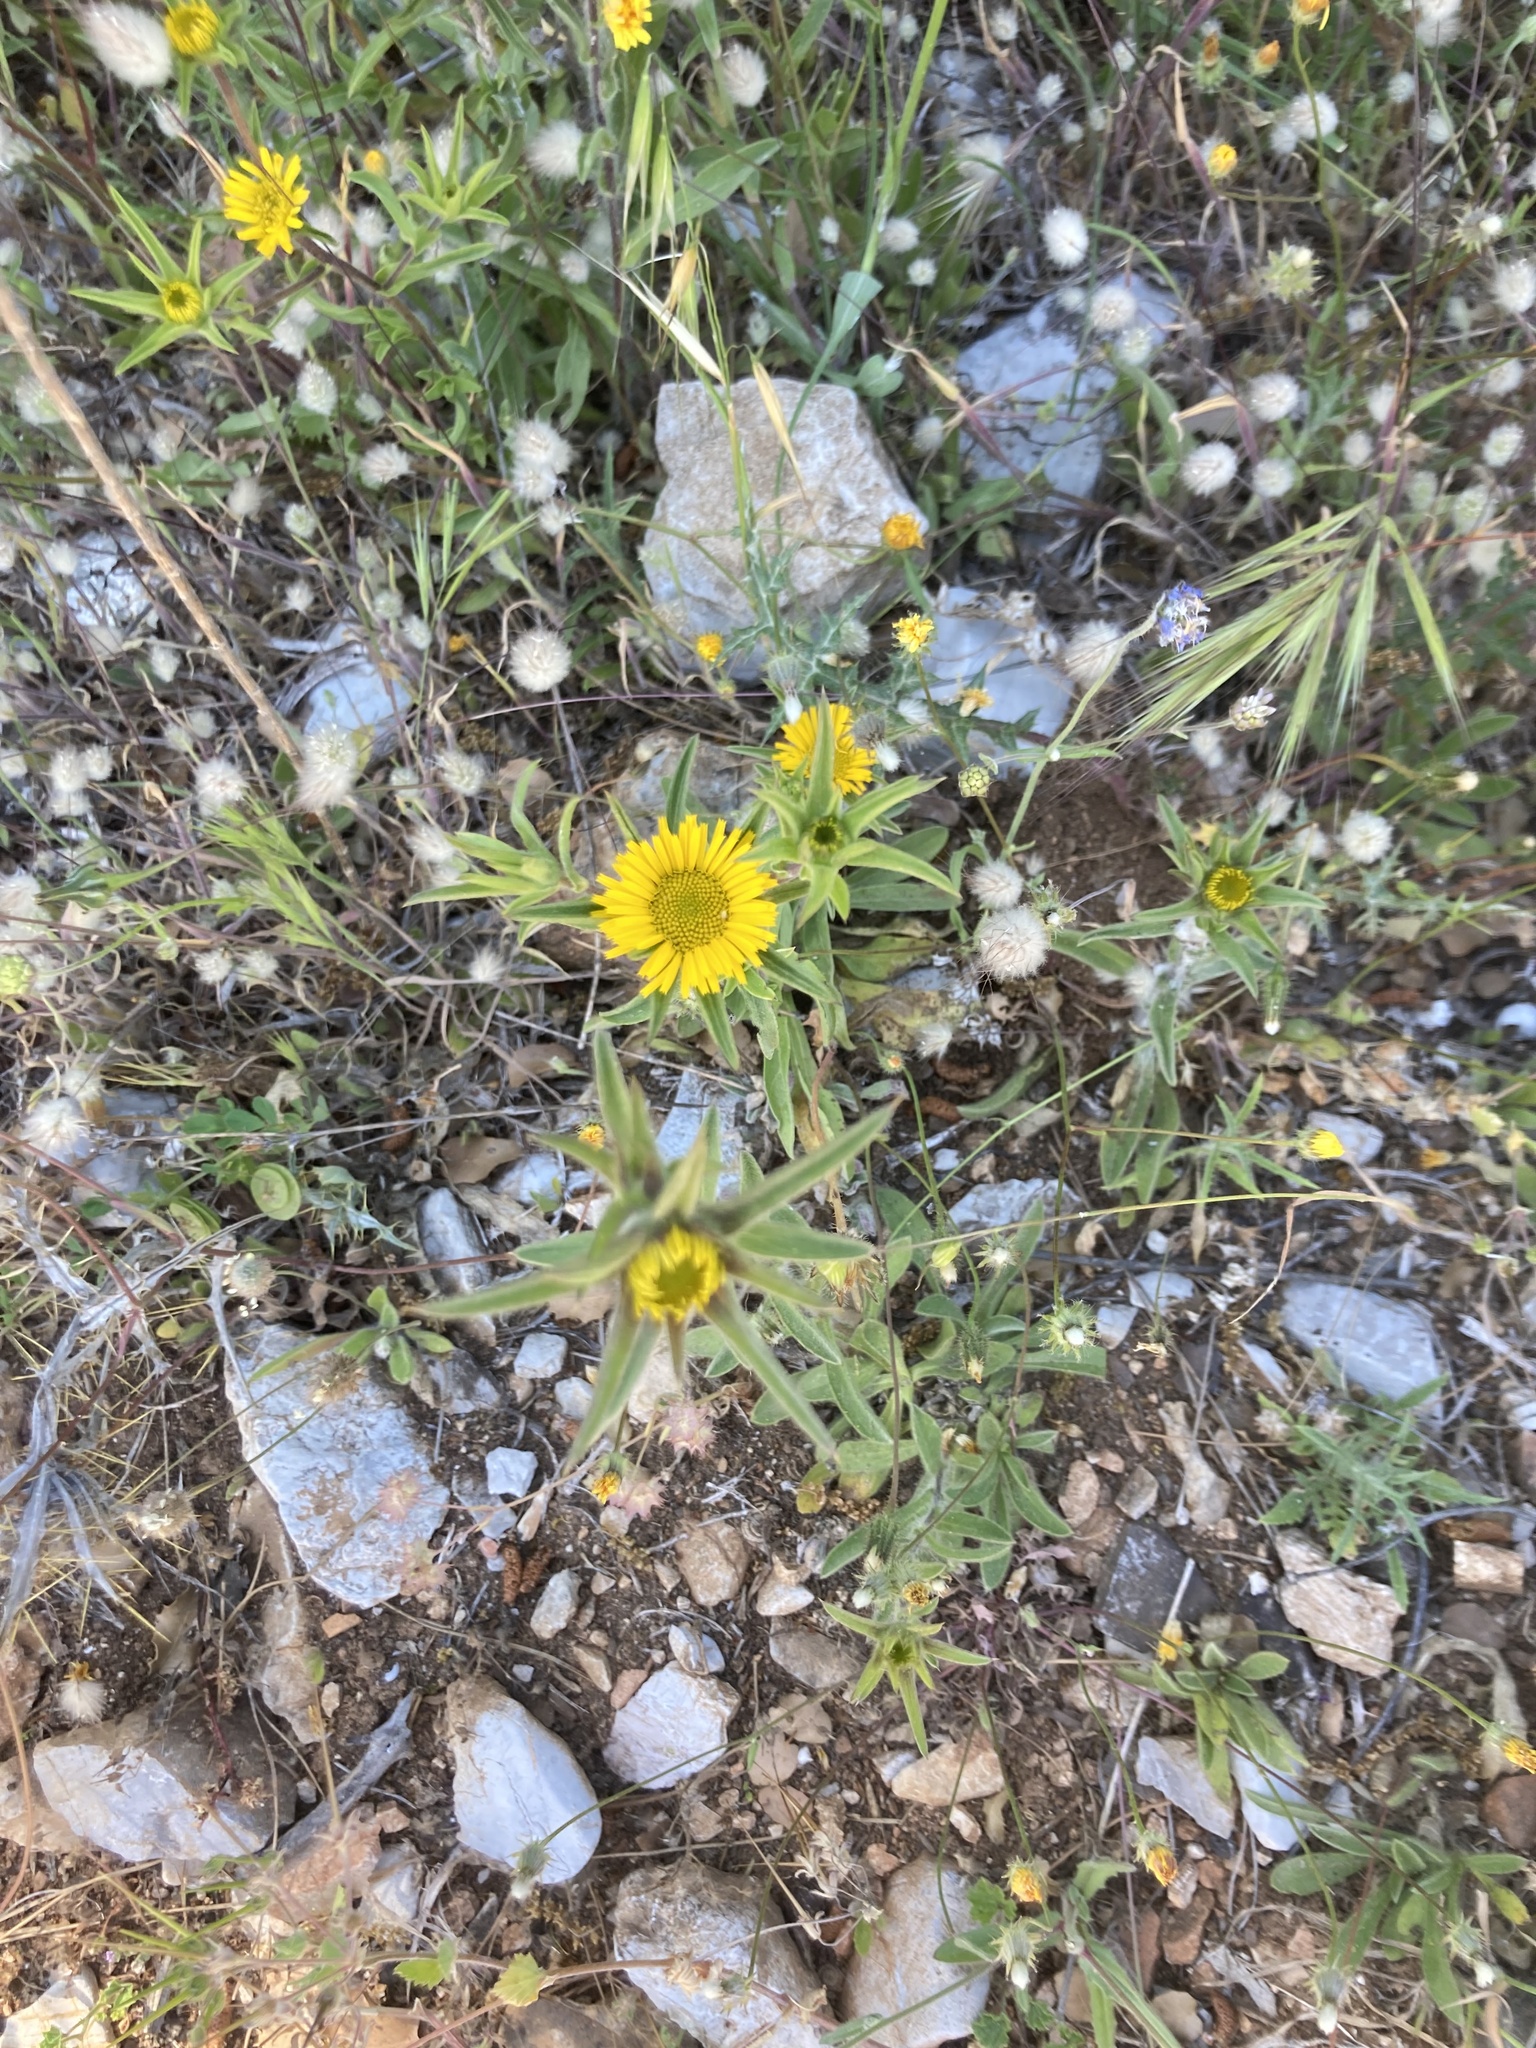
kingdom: Plantae
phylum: Tracheophyta
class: Magnoliopsida
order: Asterales
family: Asteraceae
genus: Pallenis
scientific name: Pallenis spinosa
